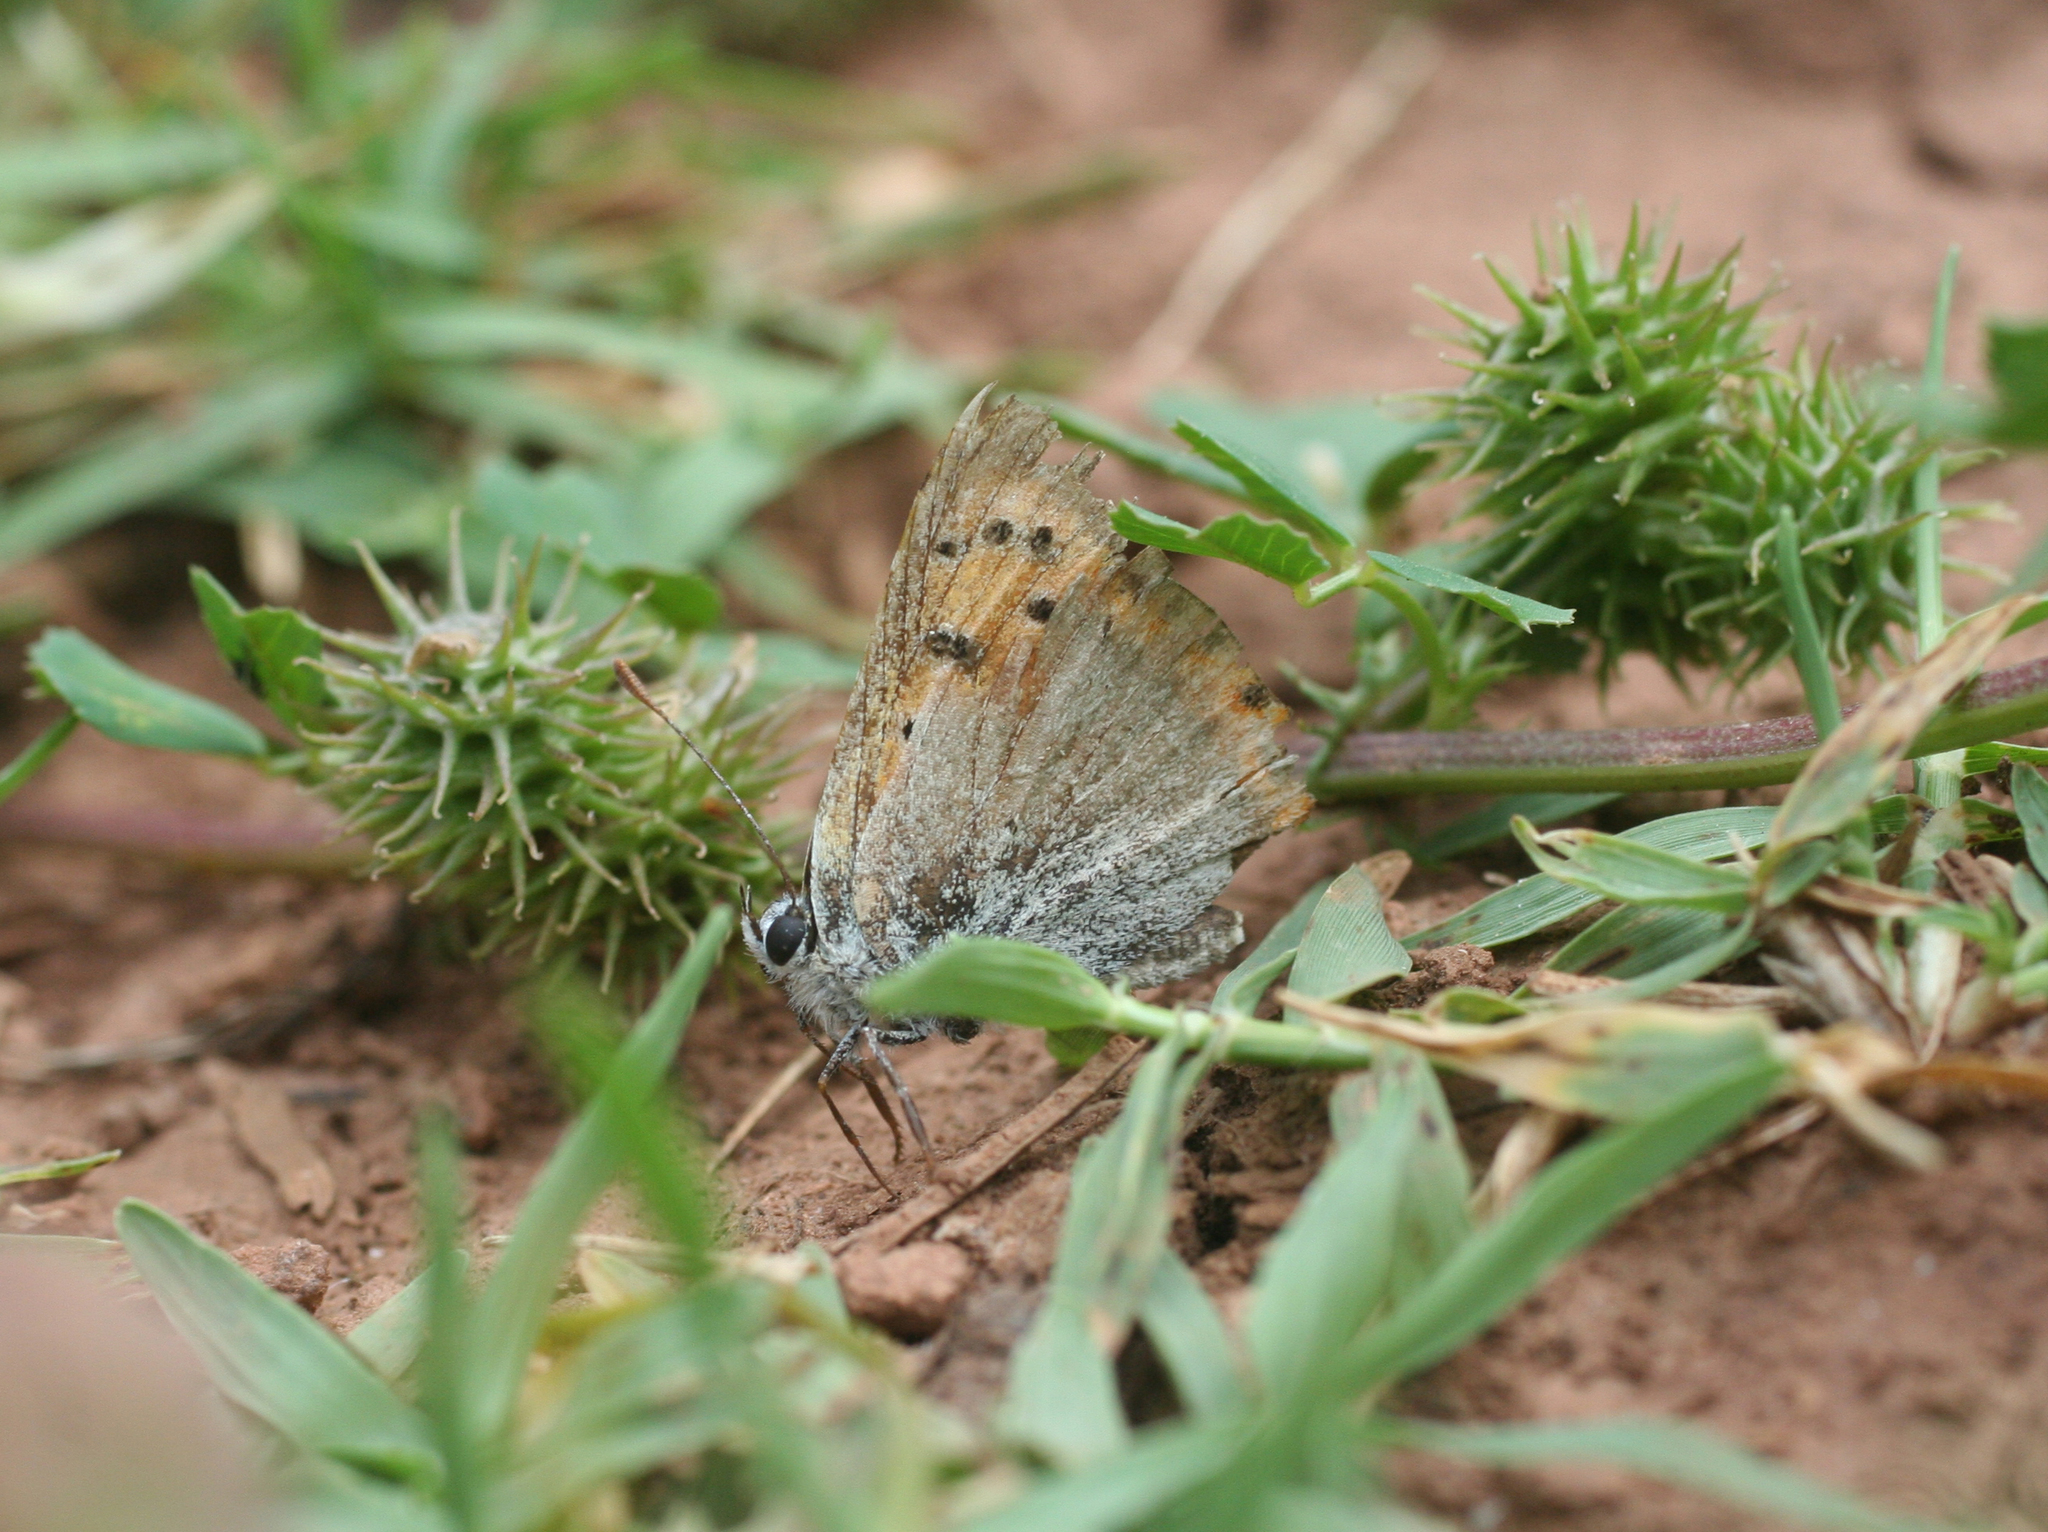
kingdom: Animalia
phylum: Arthropoda
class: Insecta
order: Lepidoptera
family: Lycaenidae
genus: Lycaena
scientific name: Lycaena phlaeas
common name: Small copper
